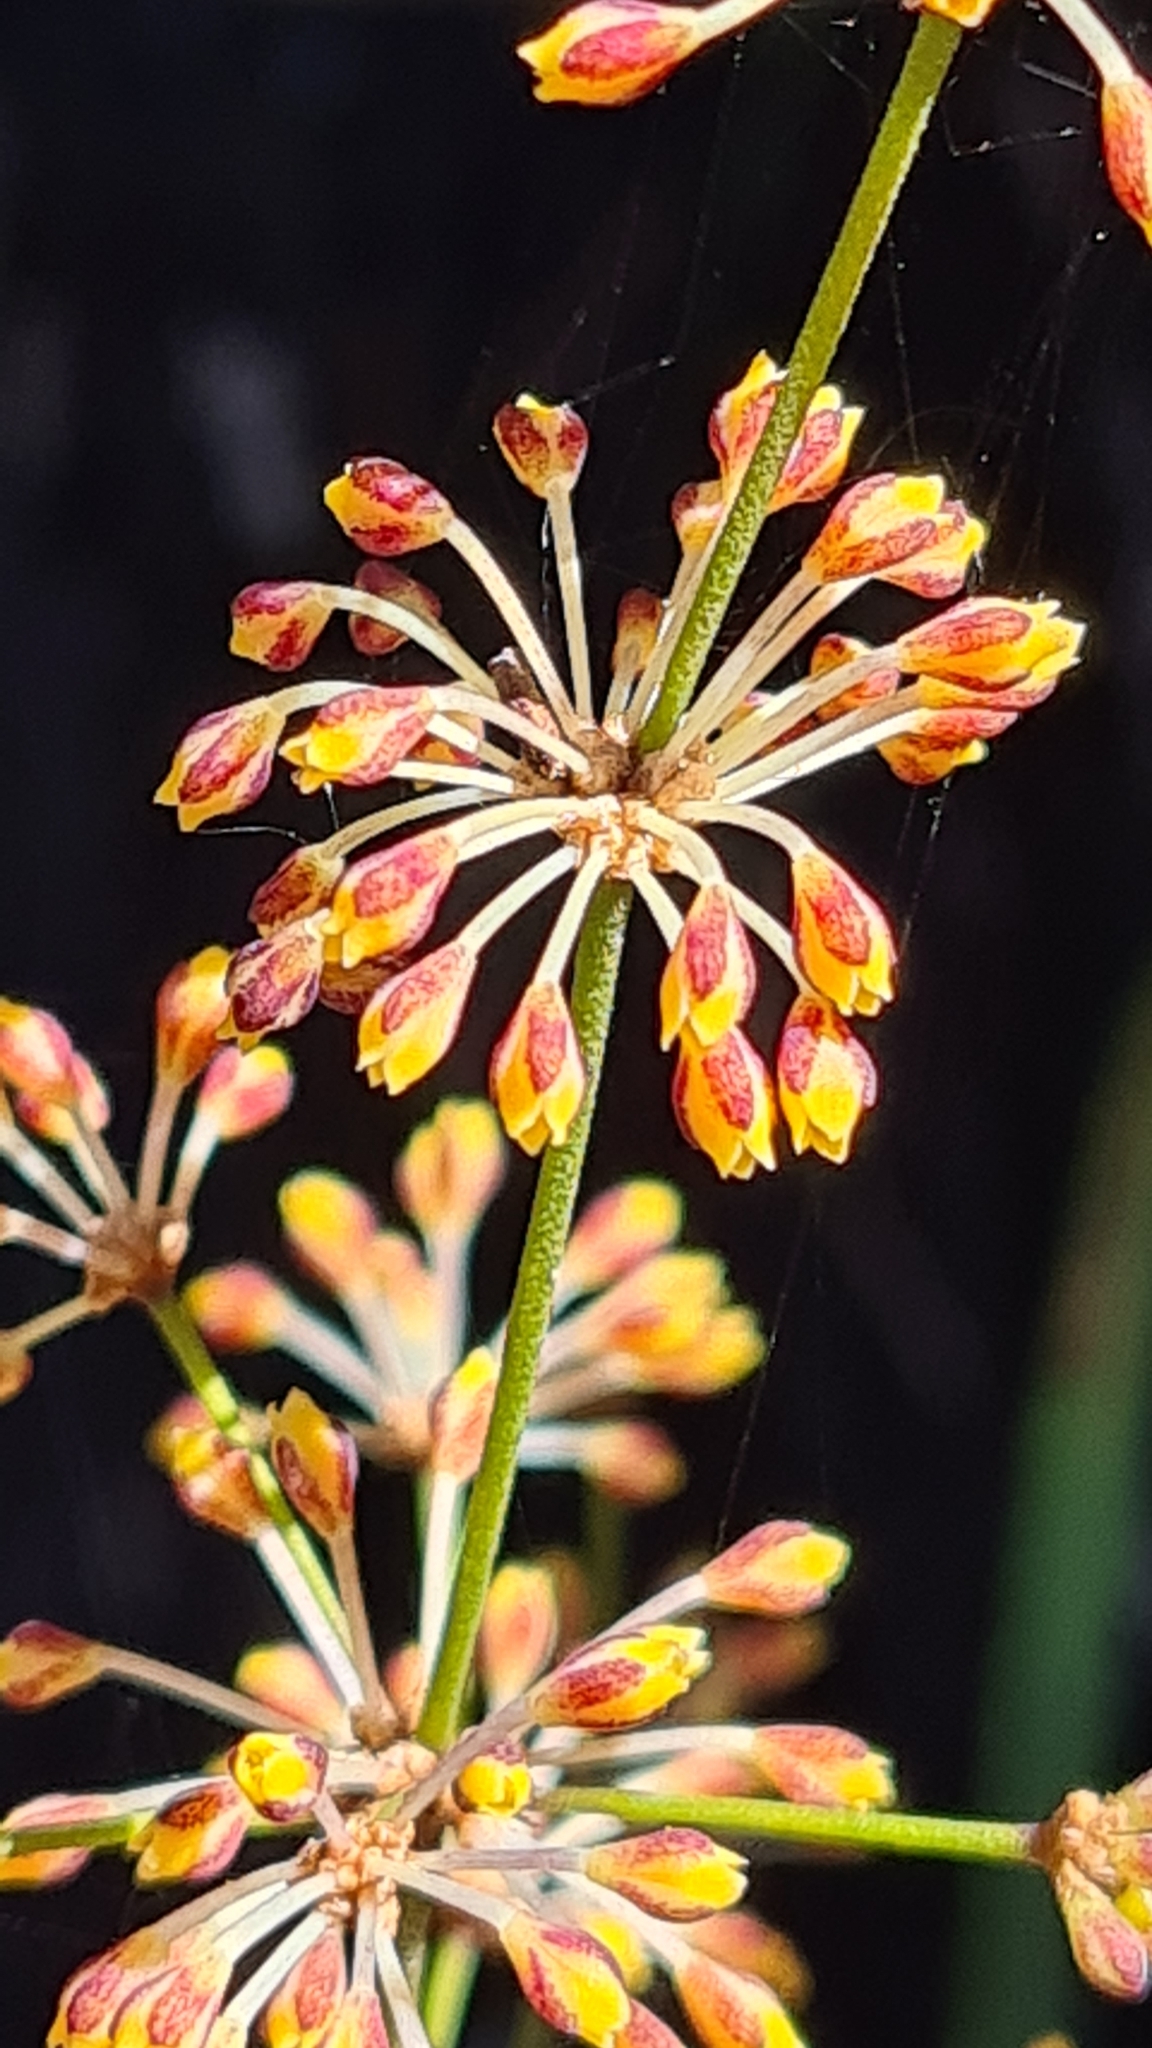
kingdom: Plantae
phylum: Tracheophyta
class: Liliopsida
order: Asparagales
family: Asparagaceae
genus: Lomandra
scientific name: Lomandra multiflora
